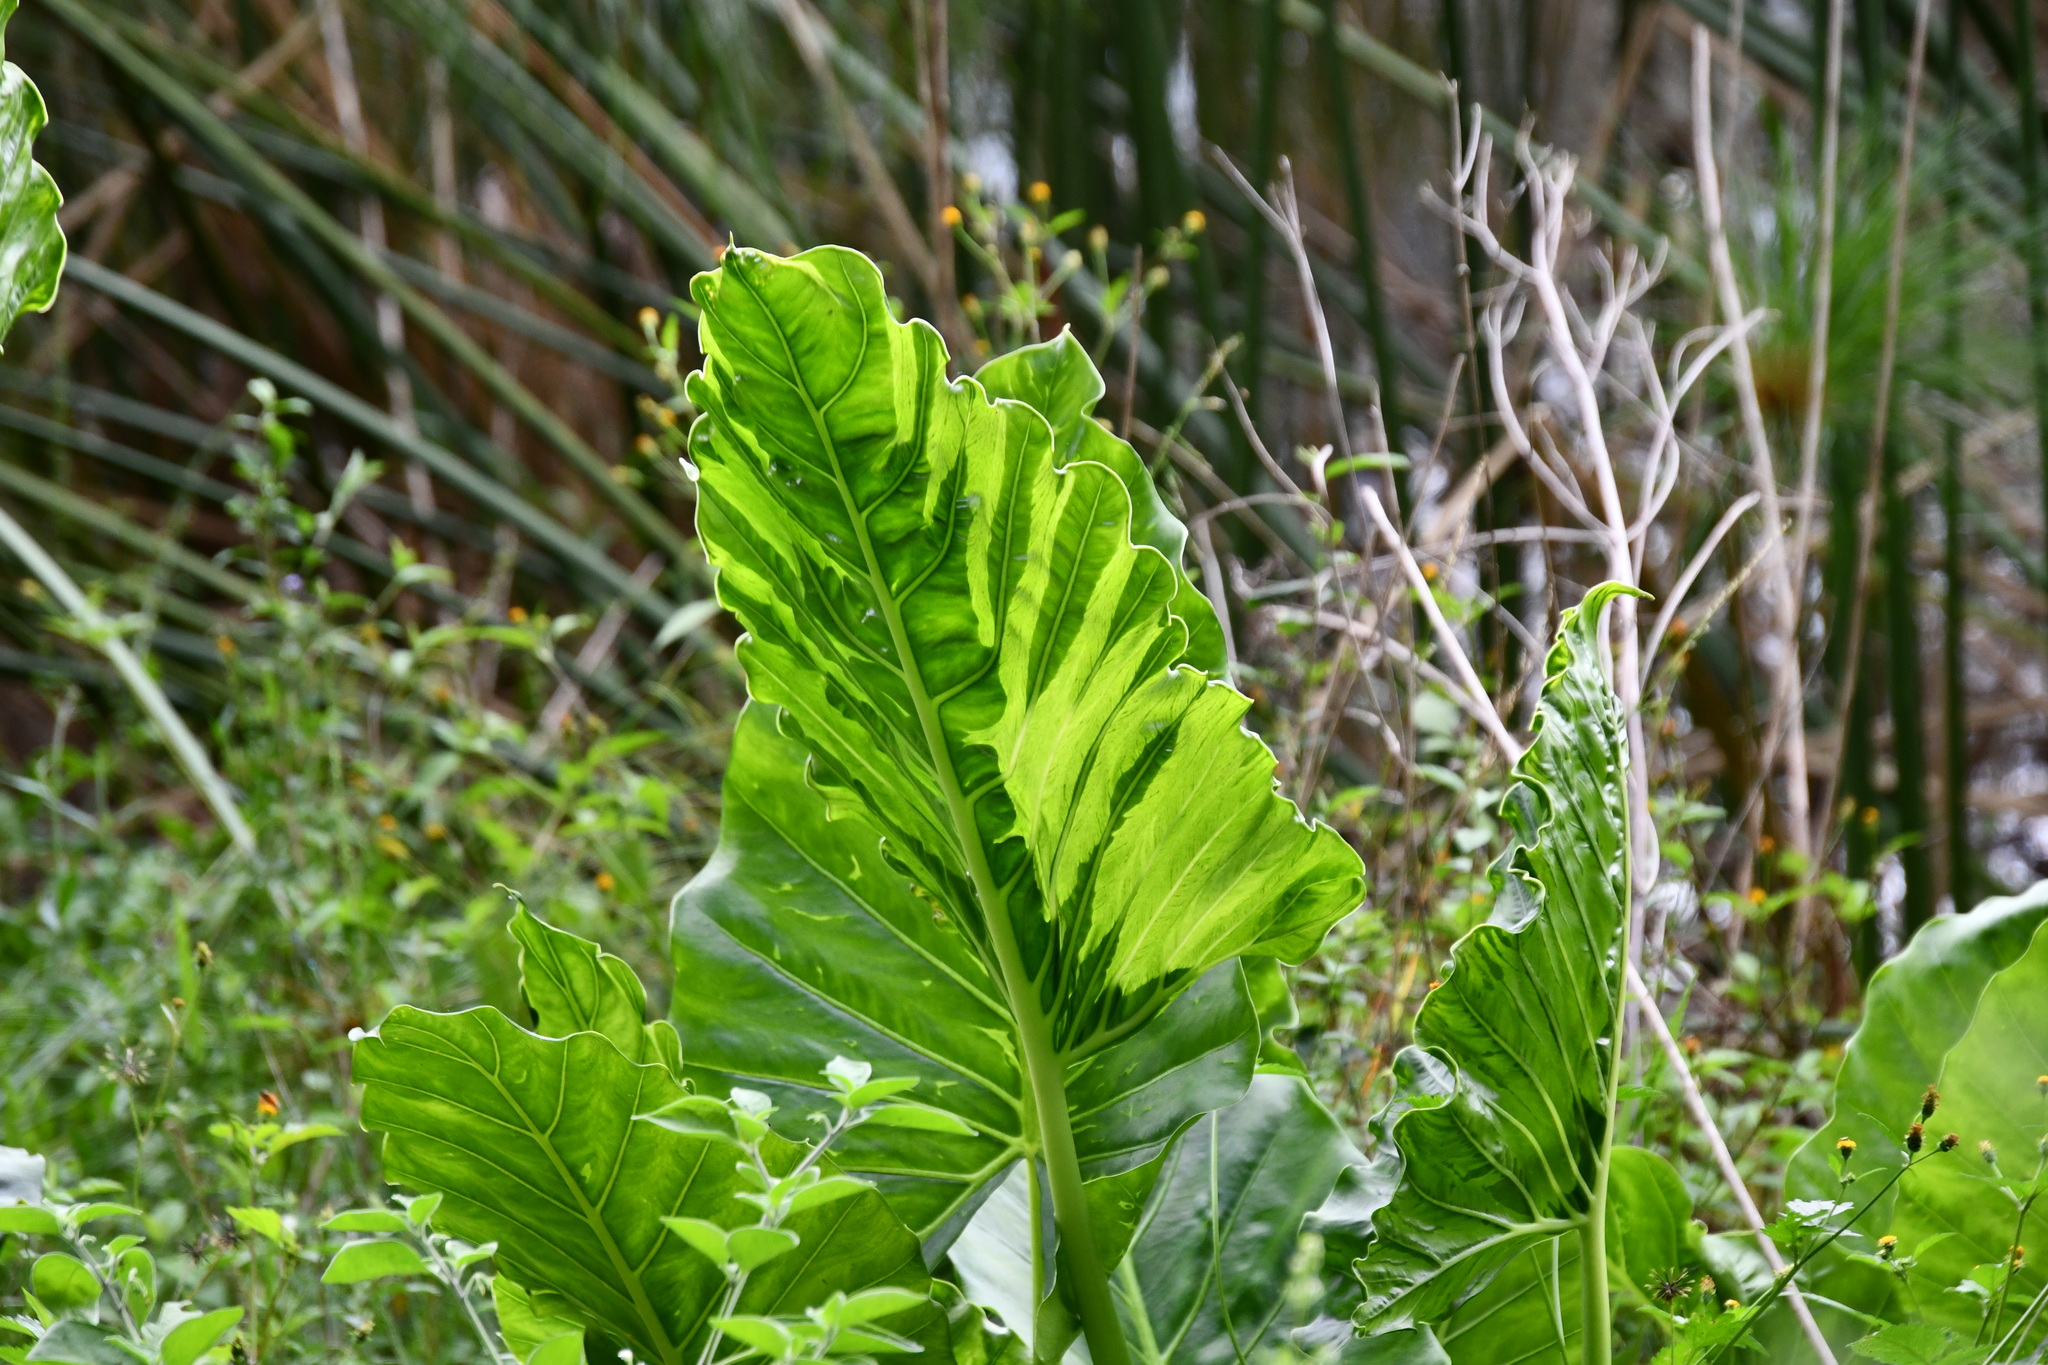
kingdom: Plantae
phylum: Tracheophyta
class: Liliopsida
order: Alismatales
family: Araceae
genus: Alocasia
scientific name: Alocasia brisbanensis
